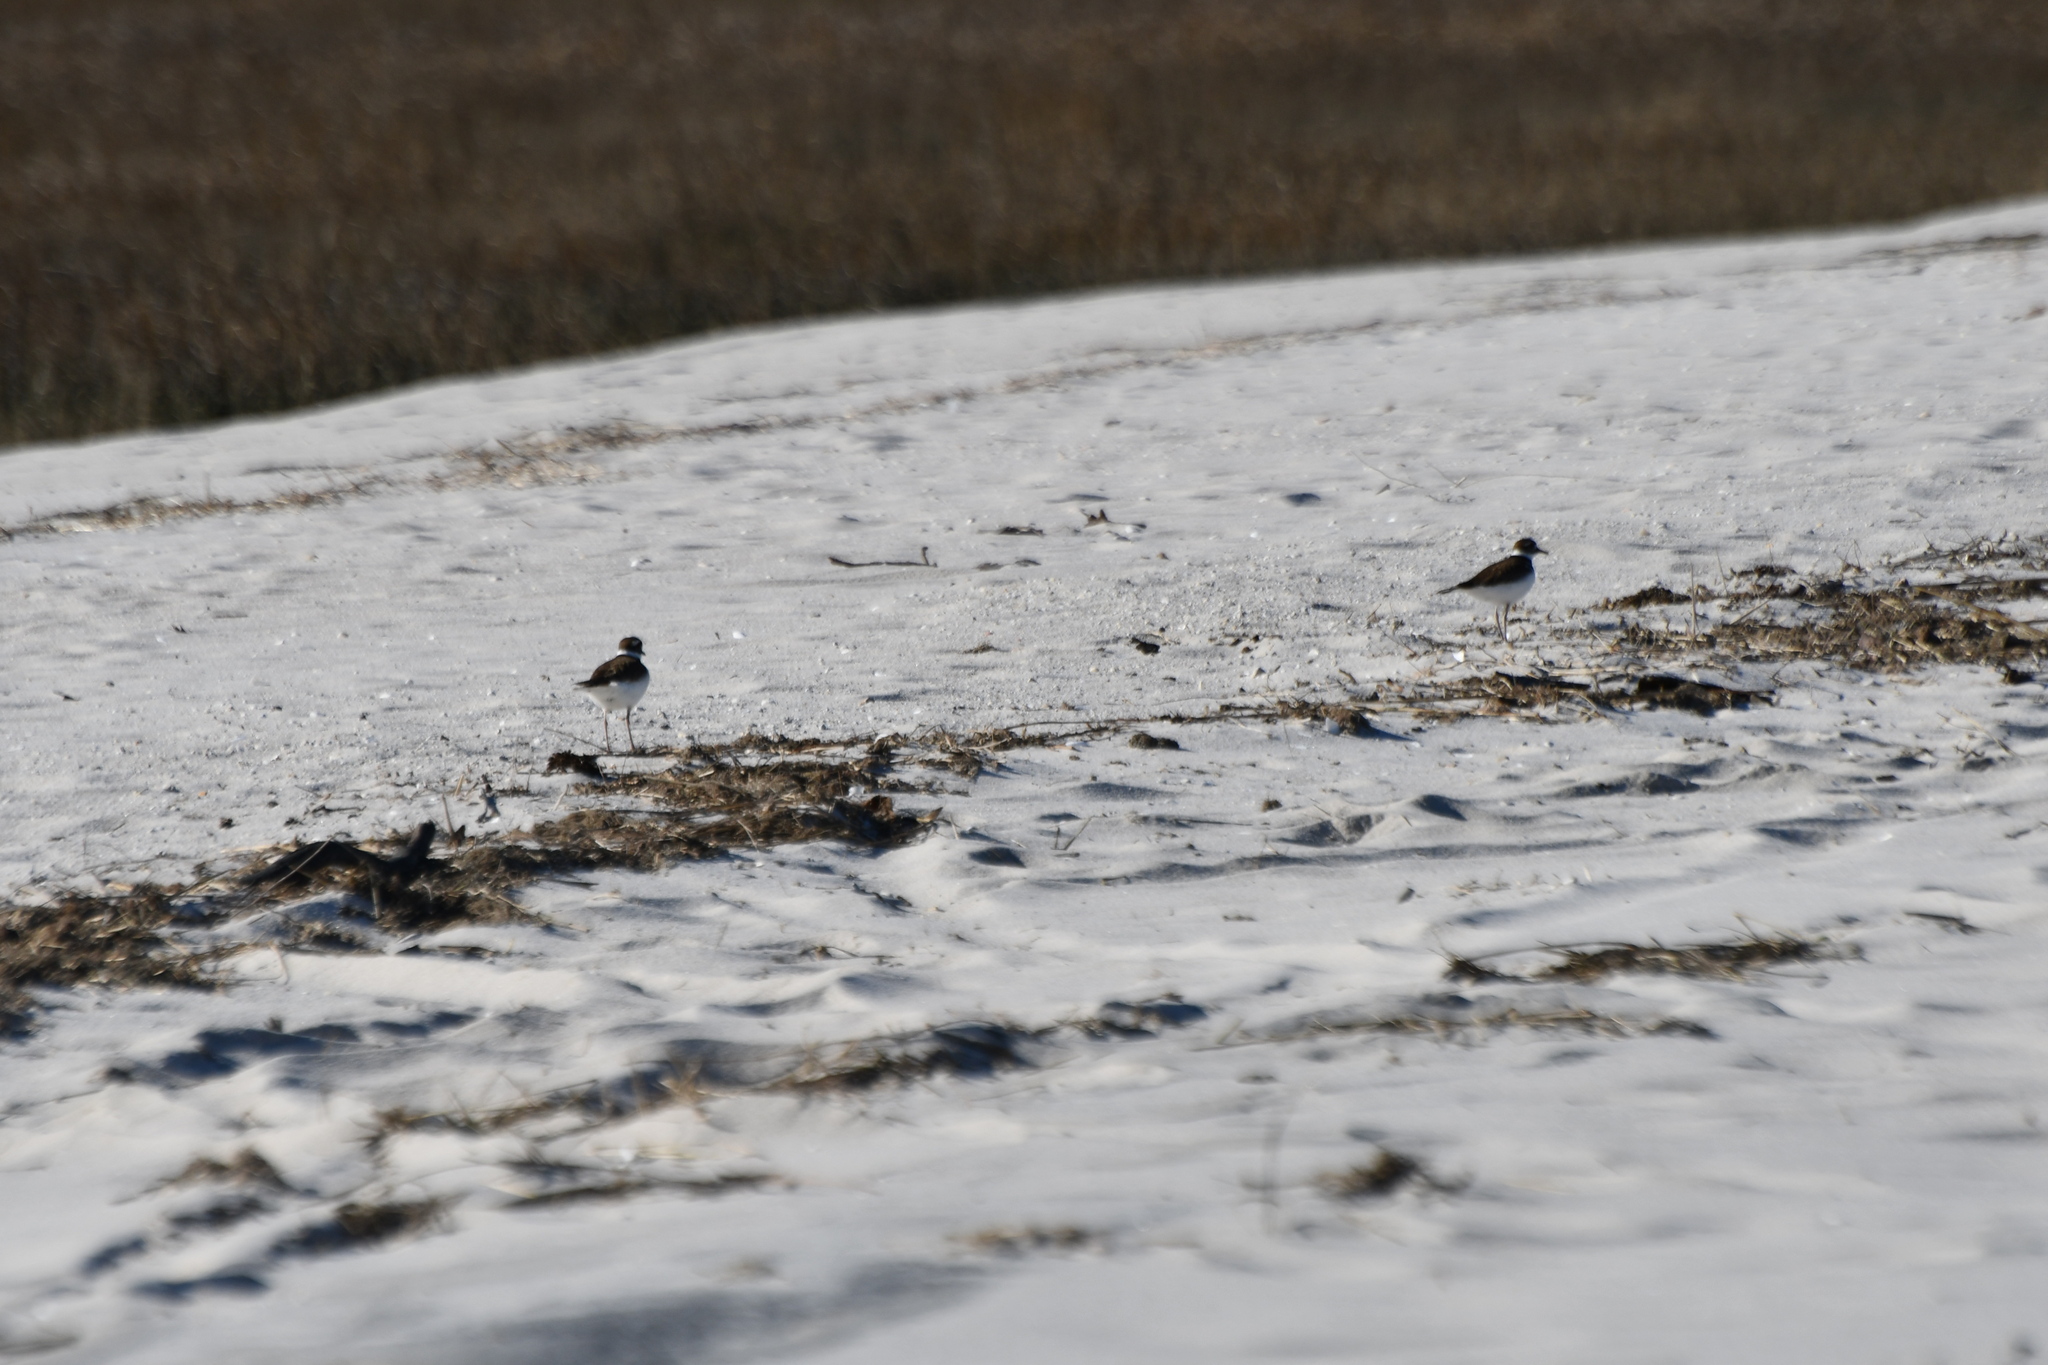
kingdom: Animalia
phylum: Chordata
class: Aves
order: Charadriiformes
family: Charadriidae
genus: Charadrius
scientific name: Charadrius vociferus
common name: Killdeer
